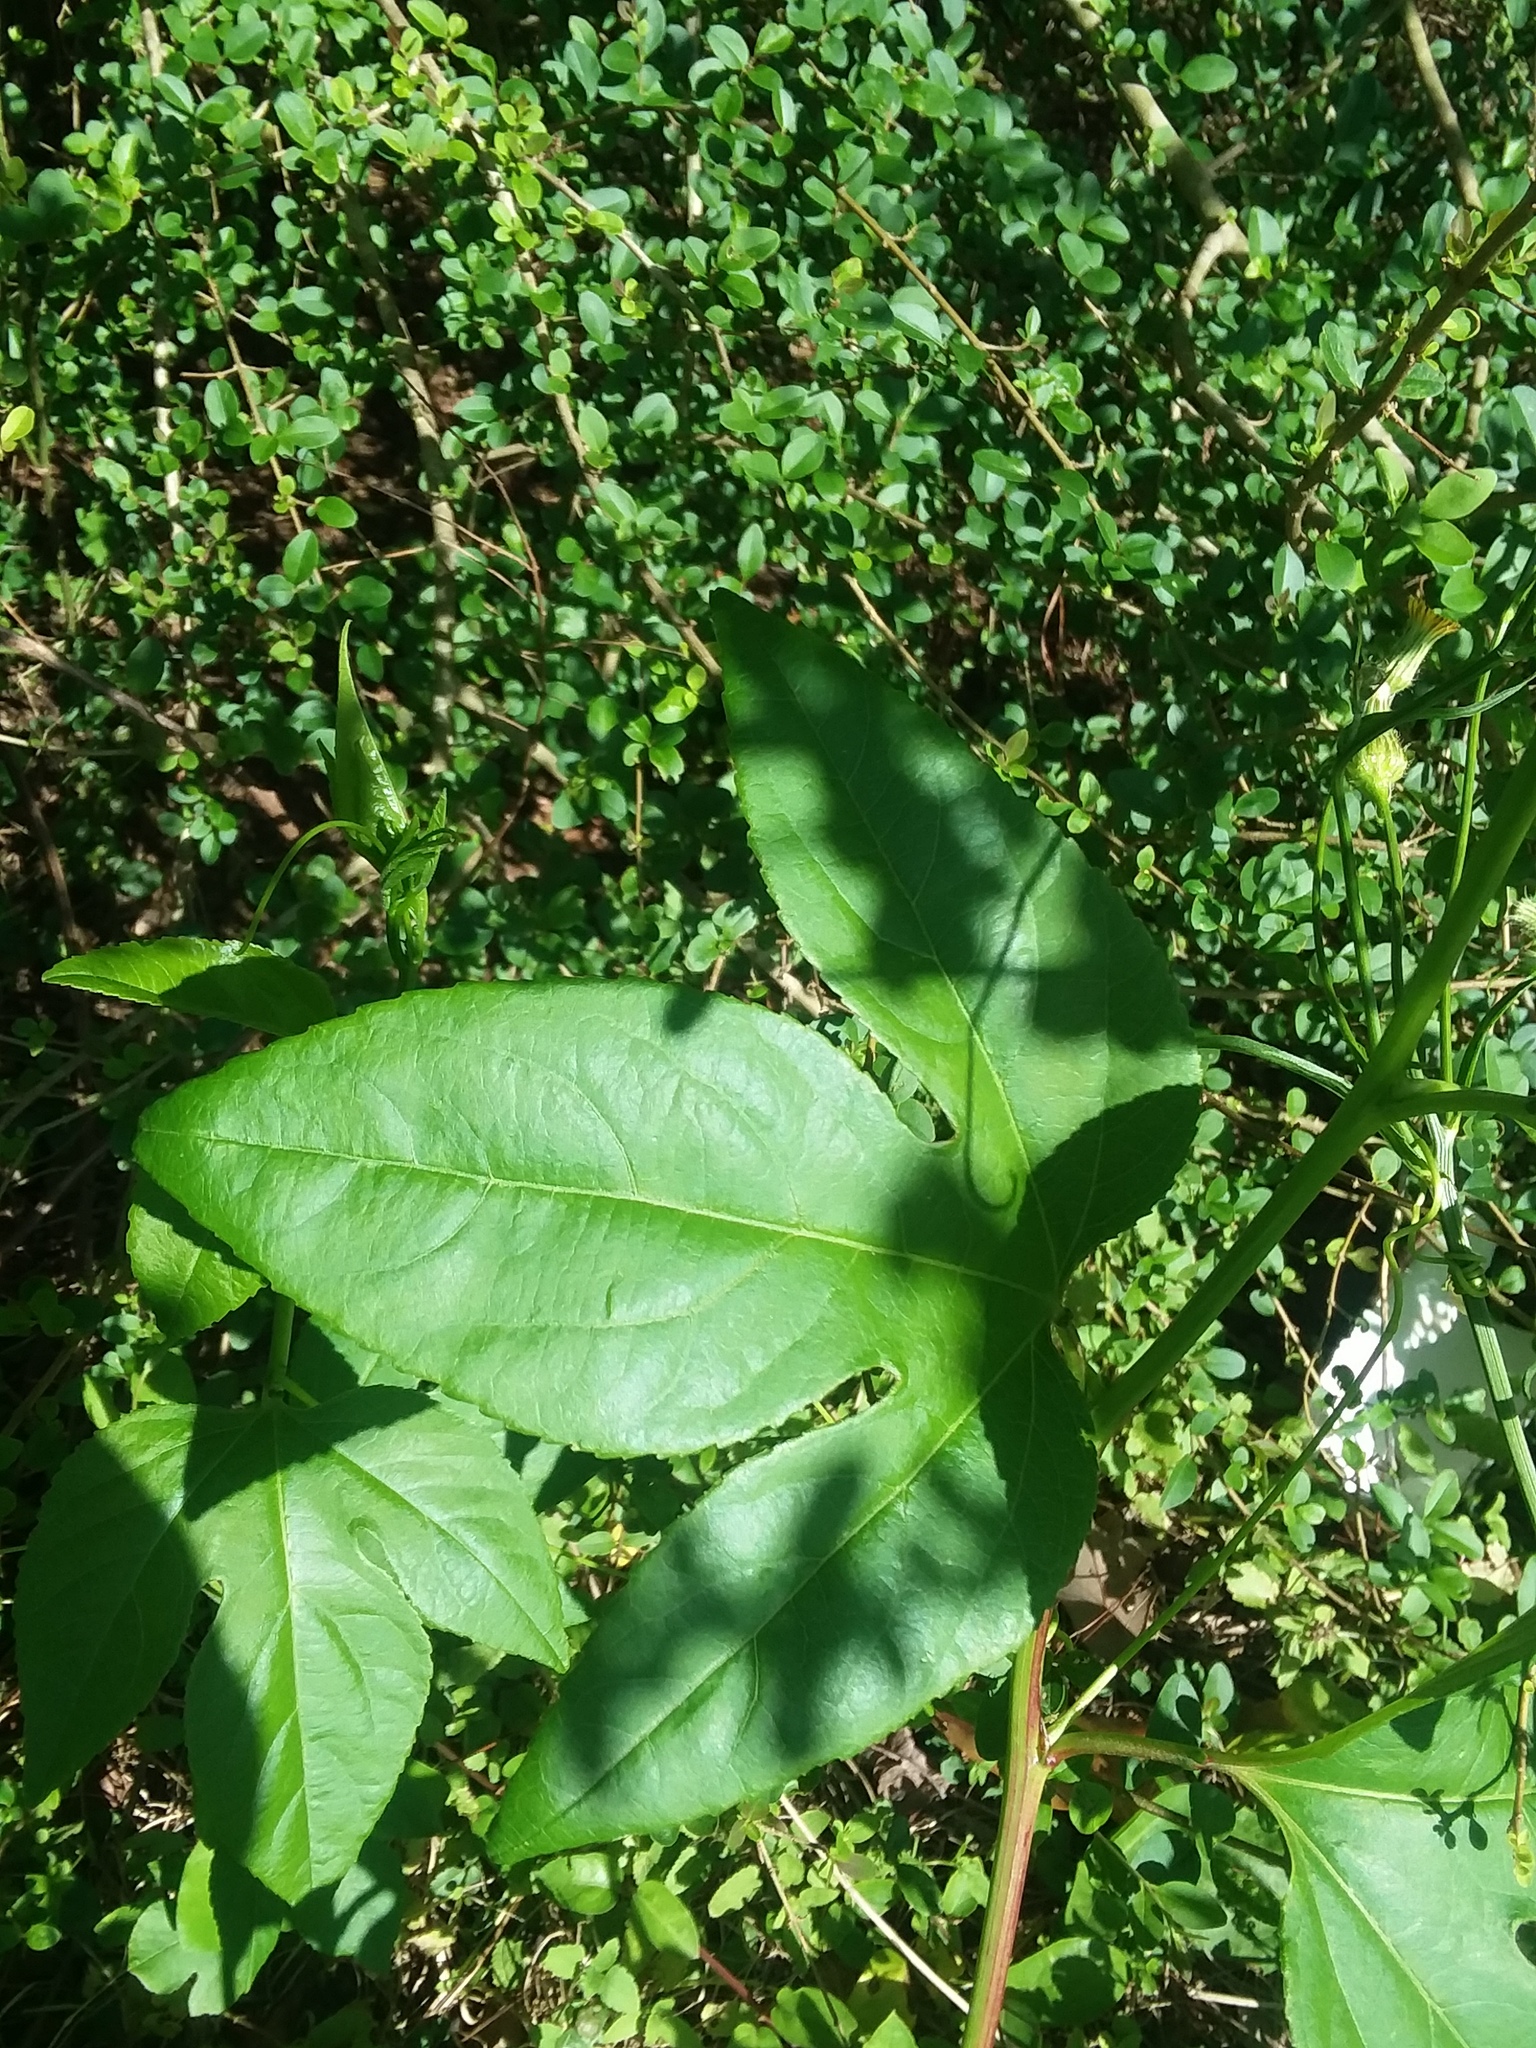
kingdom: Plantae
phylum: Tracheophyta
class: Magnoliopsida
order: Malpighiales
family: Passifloraceae
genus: Passiflora
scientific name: Passiflora incarnata
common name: Apricot-vine
